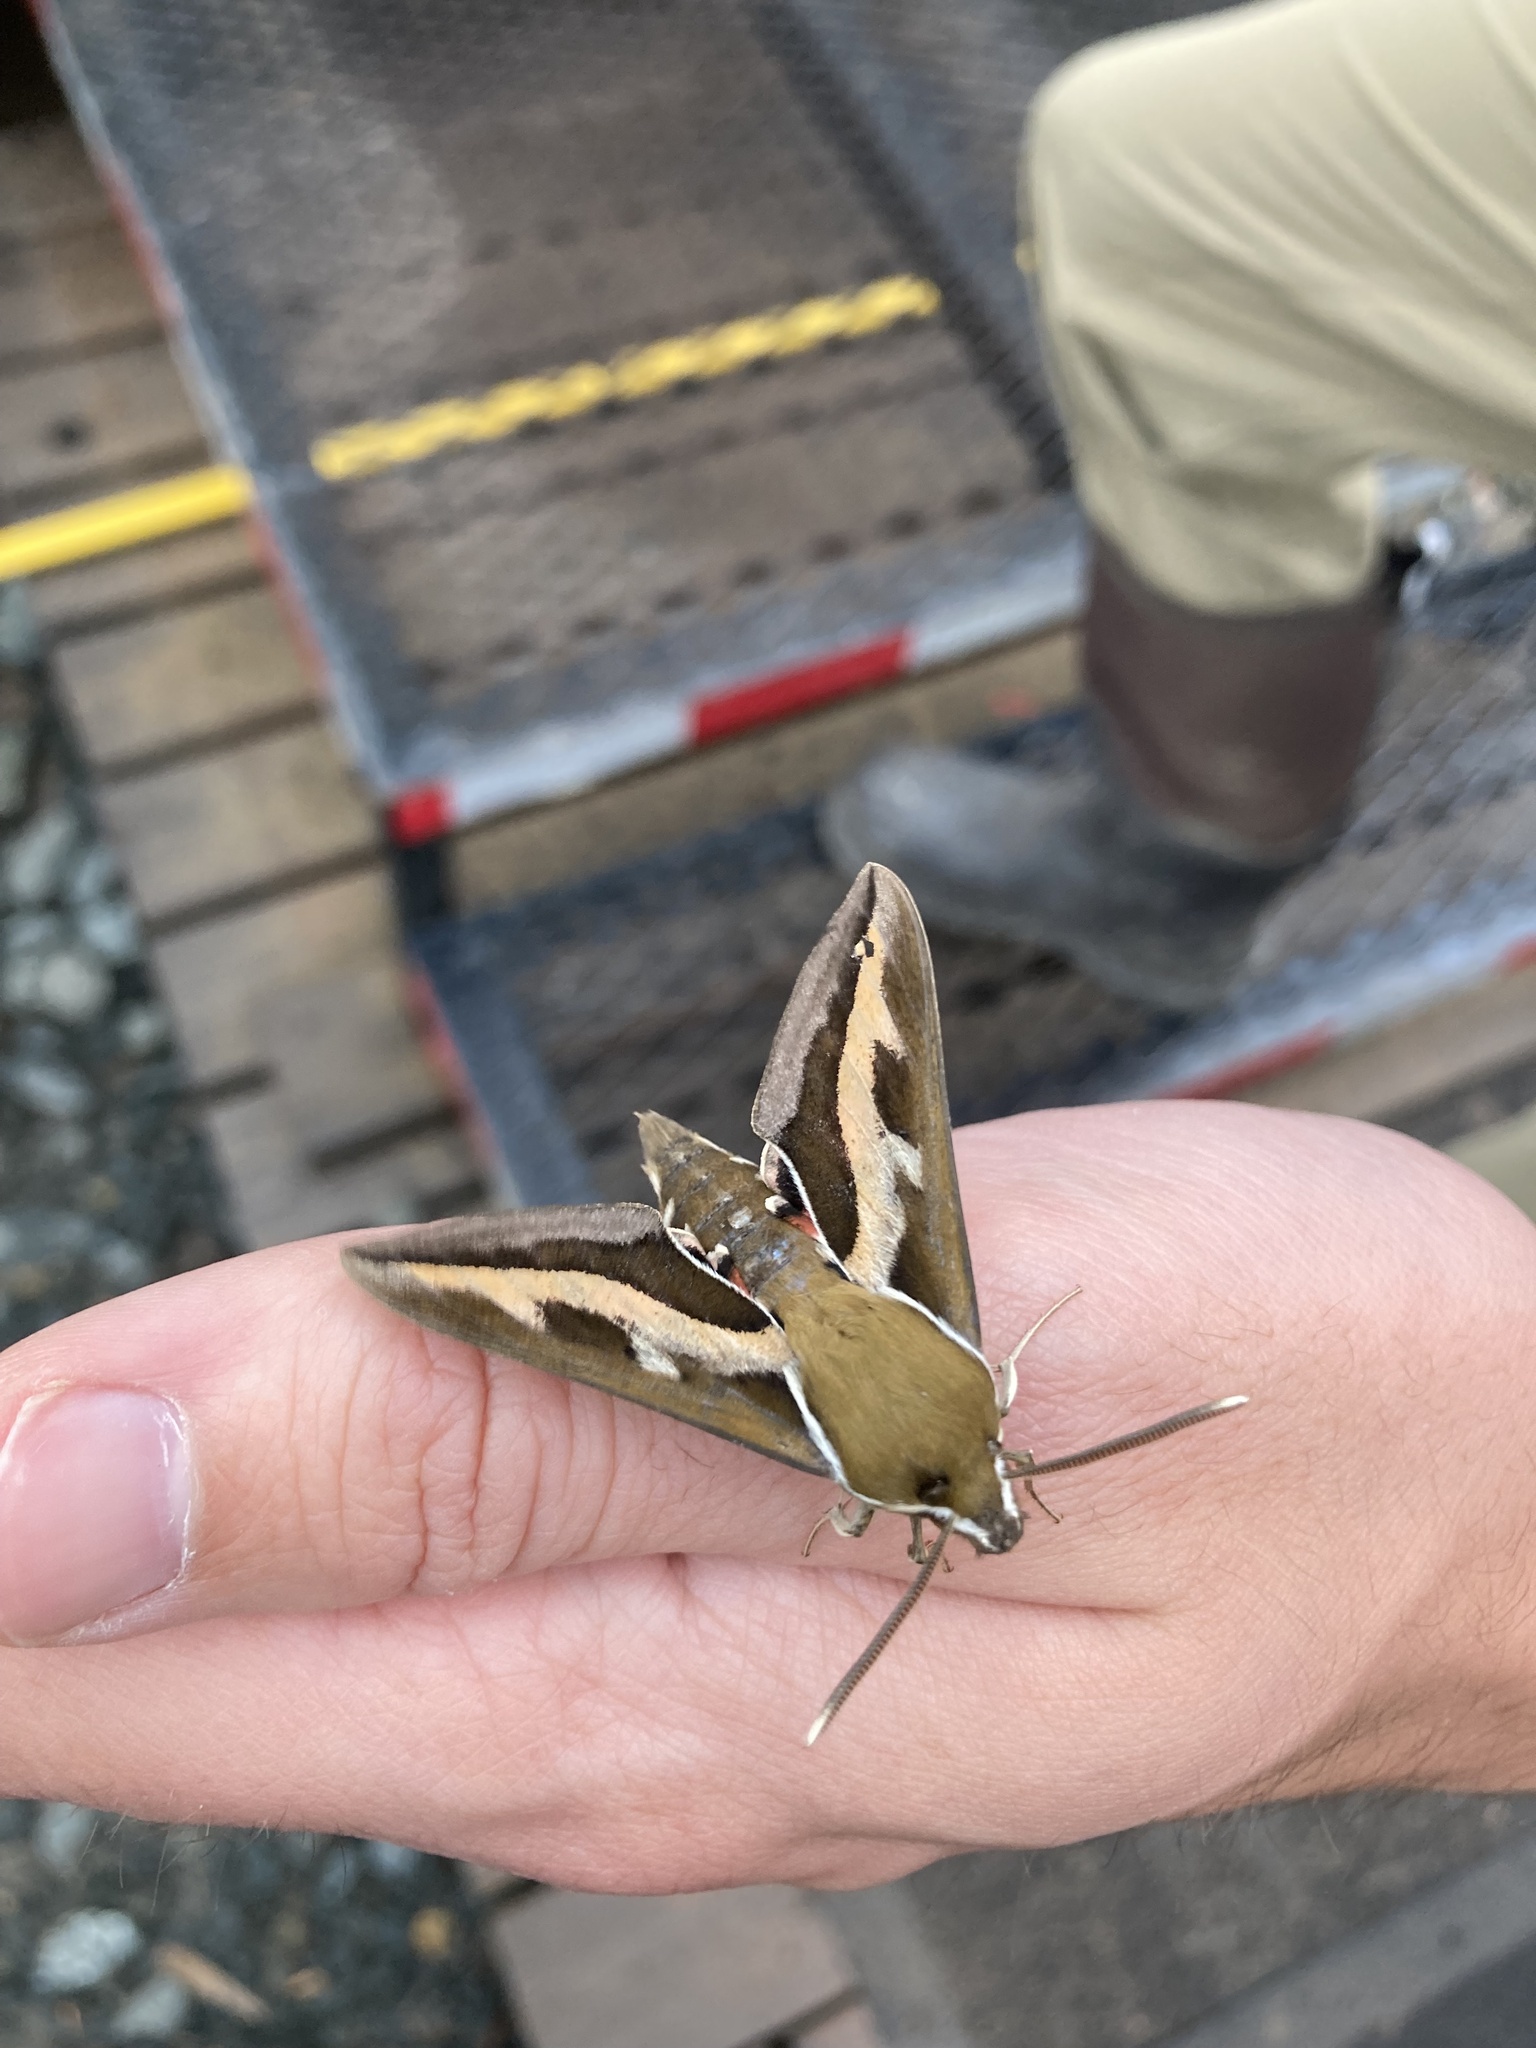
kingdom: Animalia
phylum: Arthropoda
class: Insecta
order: Lepidoptera
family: Sphingidae
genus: Hyles
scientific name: Hyles gallii
